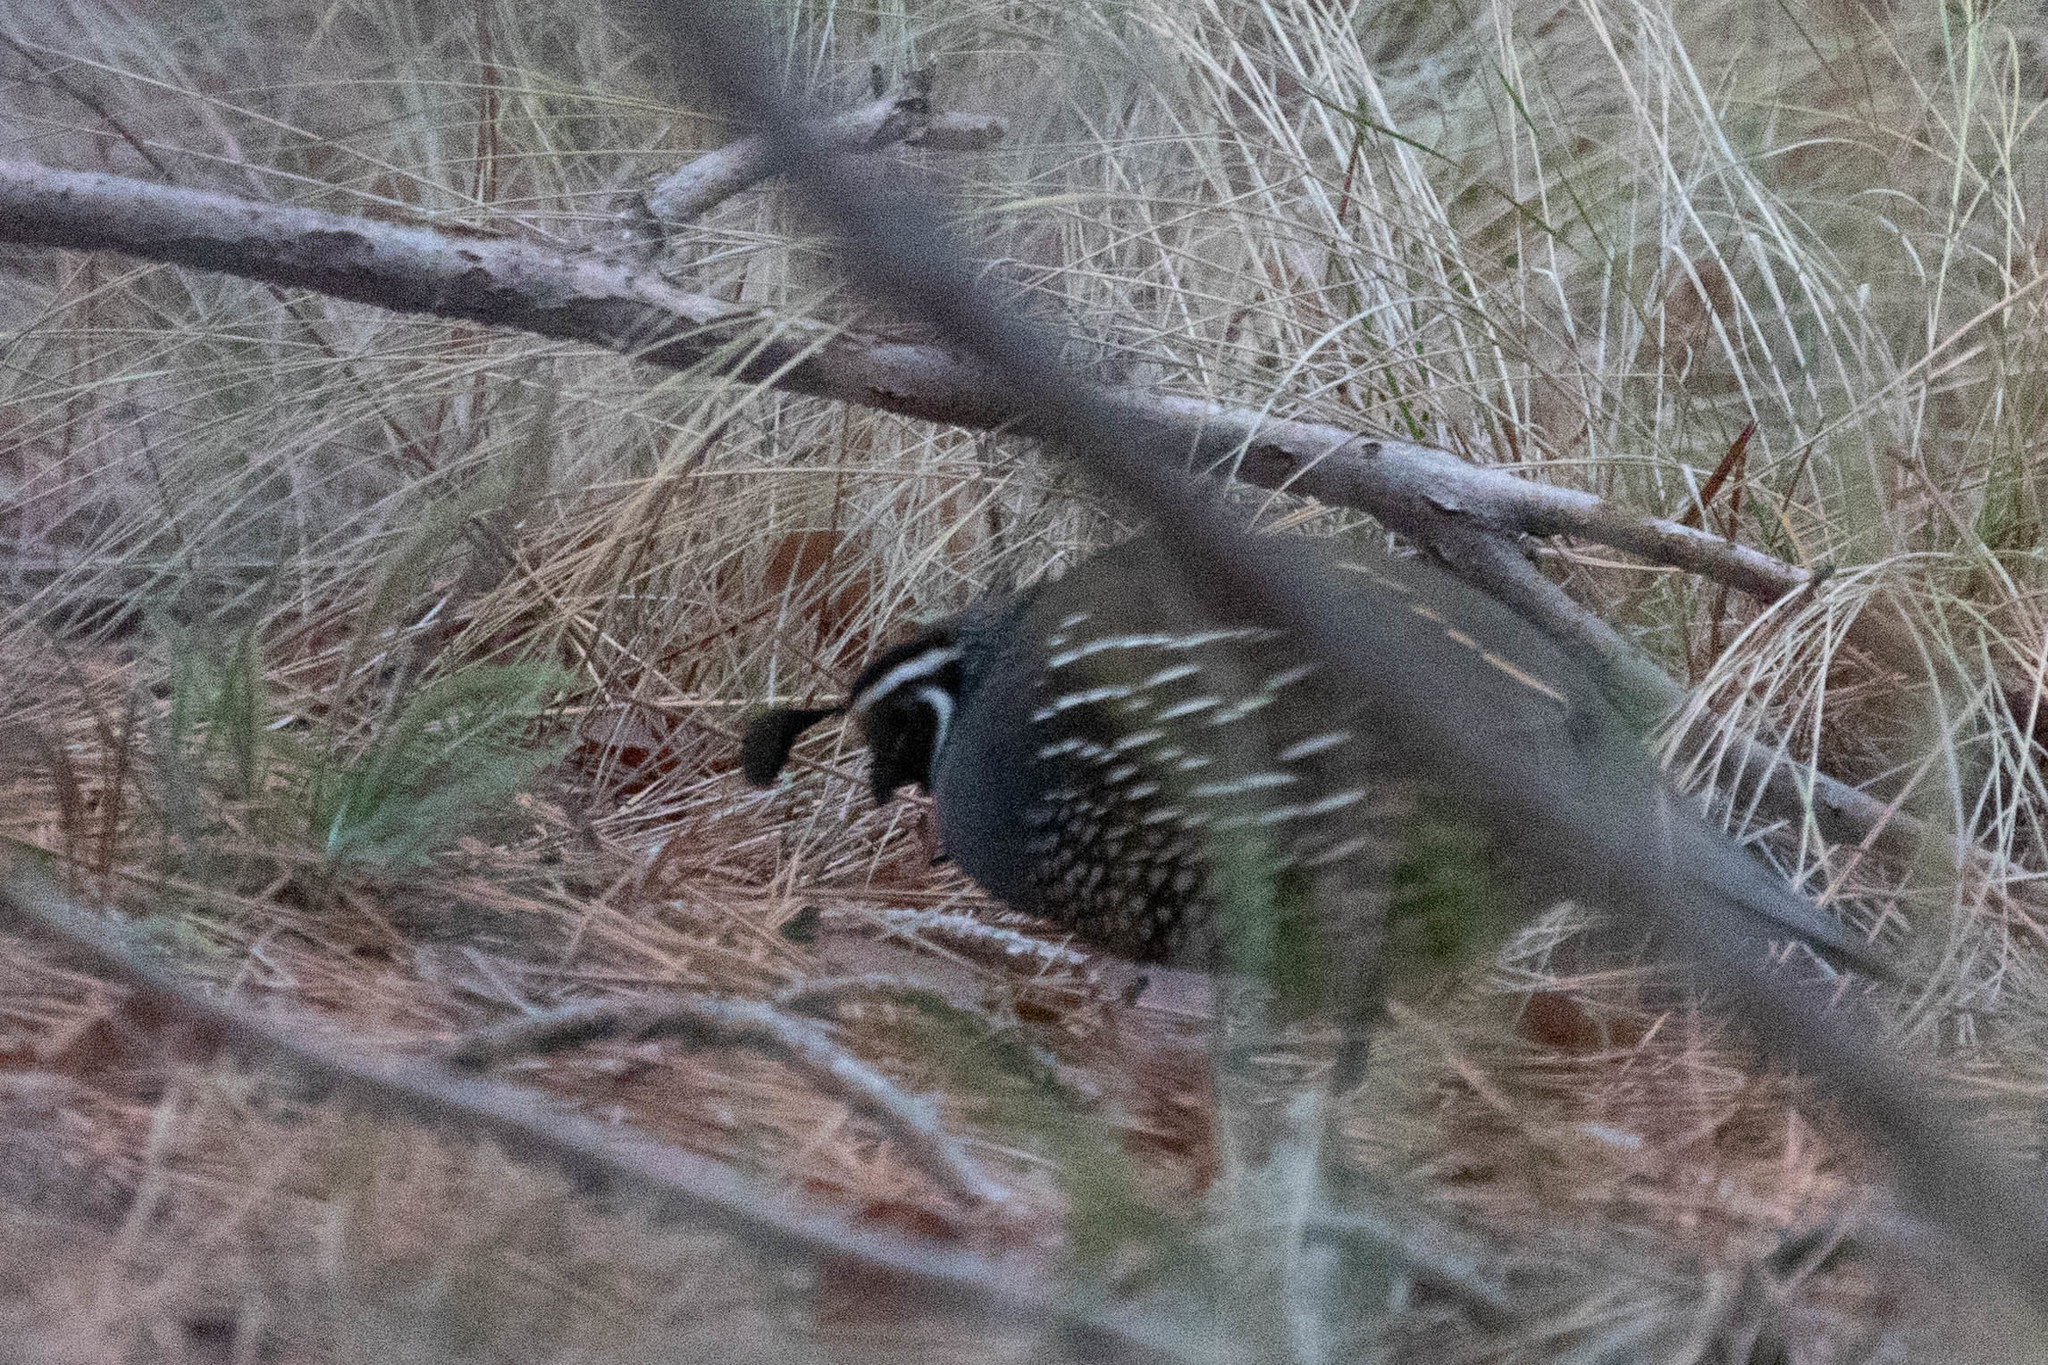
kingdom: Animalia
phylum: Chordata
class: Aves
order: Galliformes
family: Odontophoridae
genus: Callipepla
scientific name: Callipepla californica
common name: California quail
